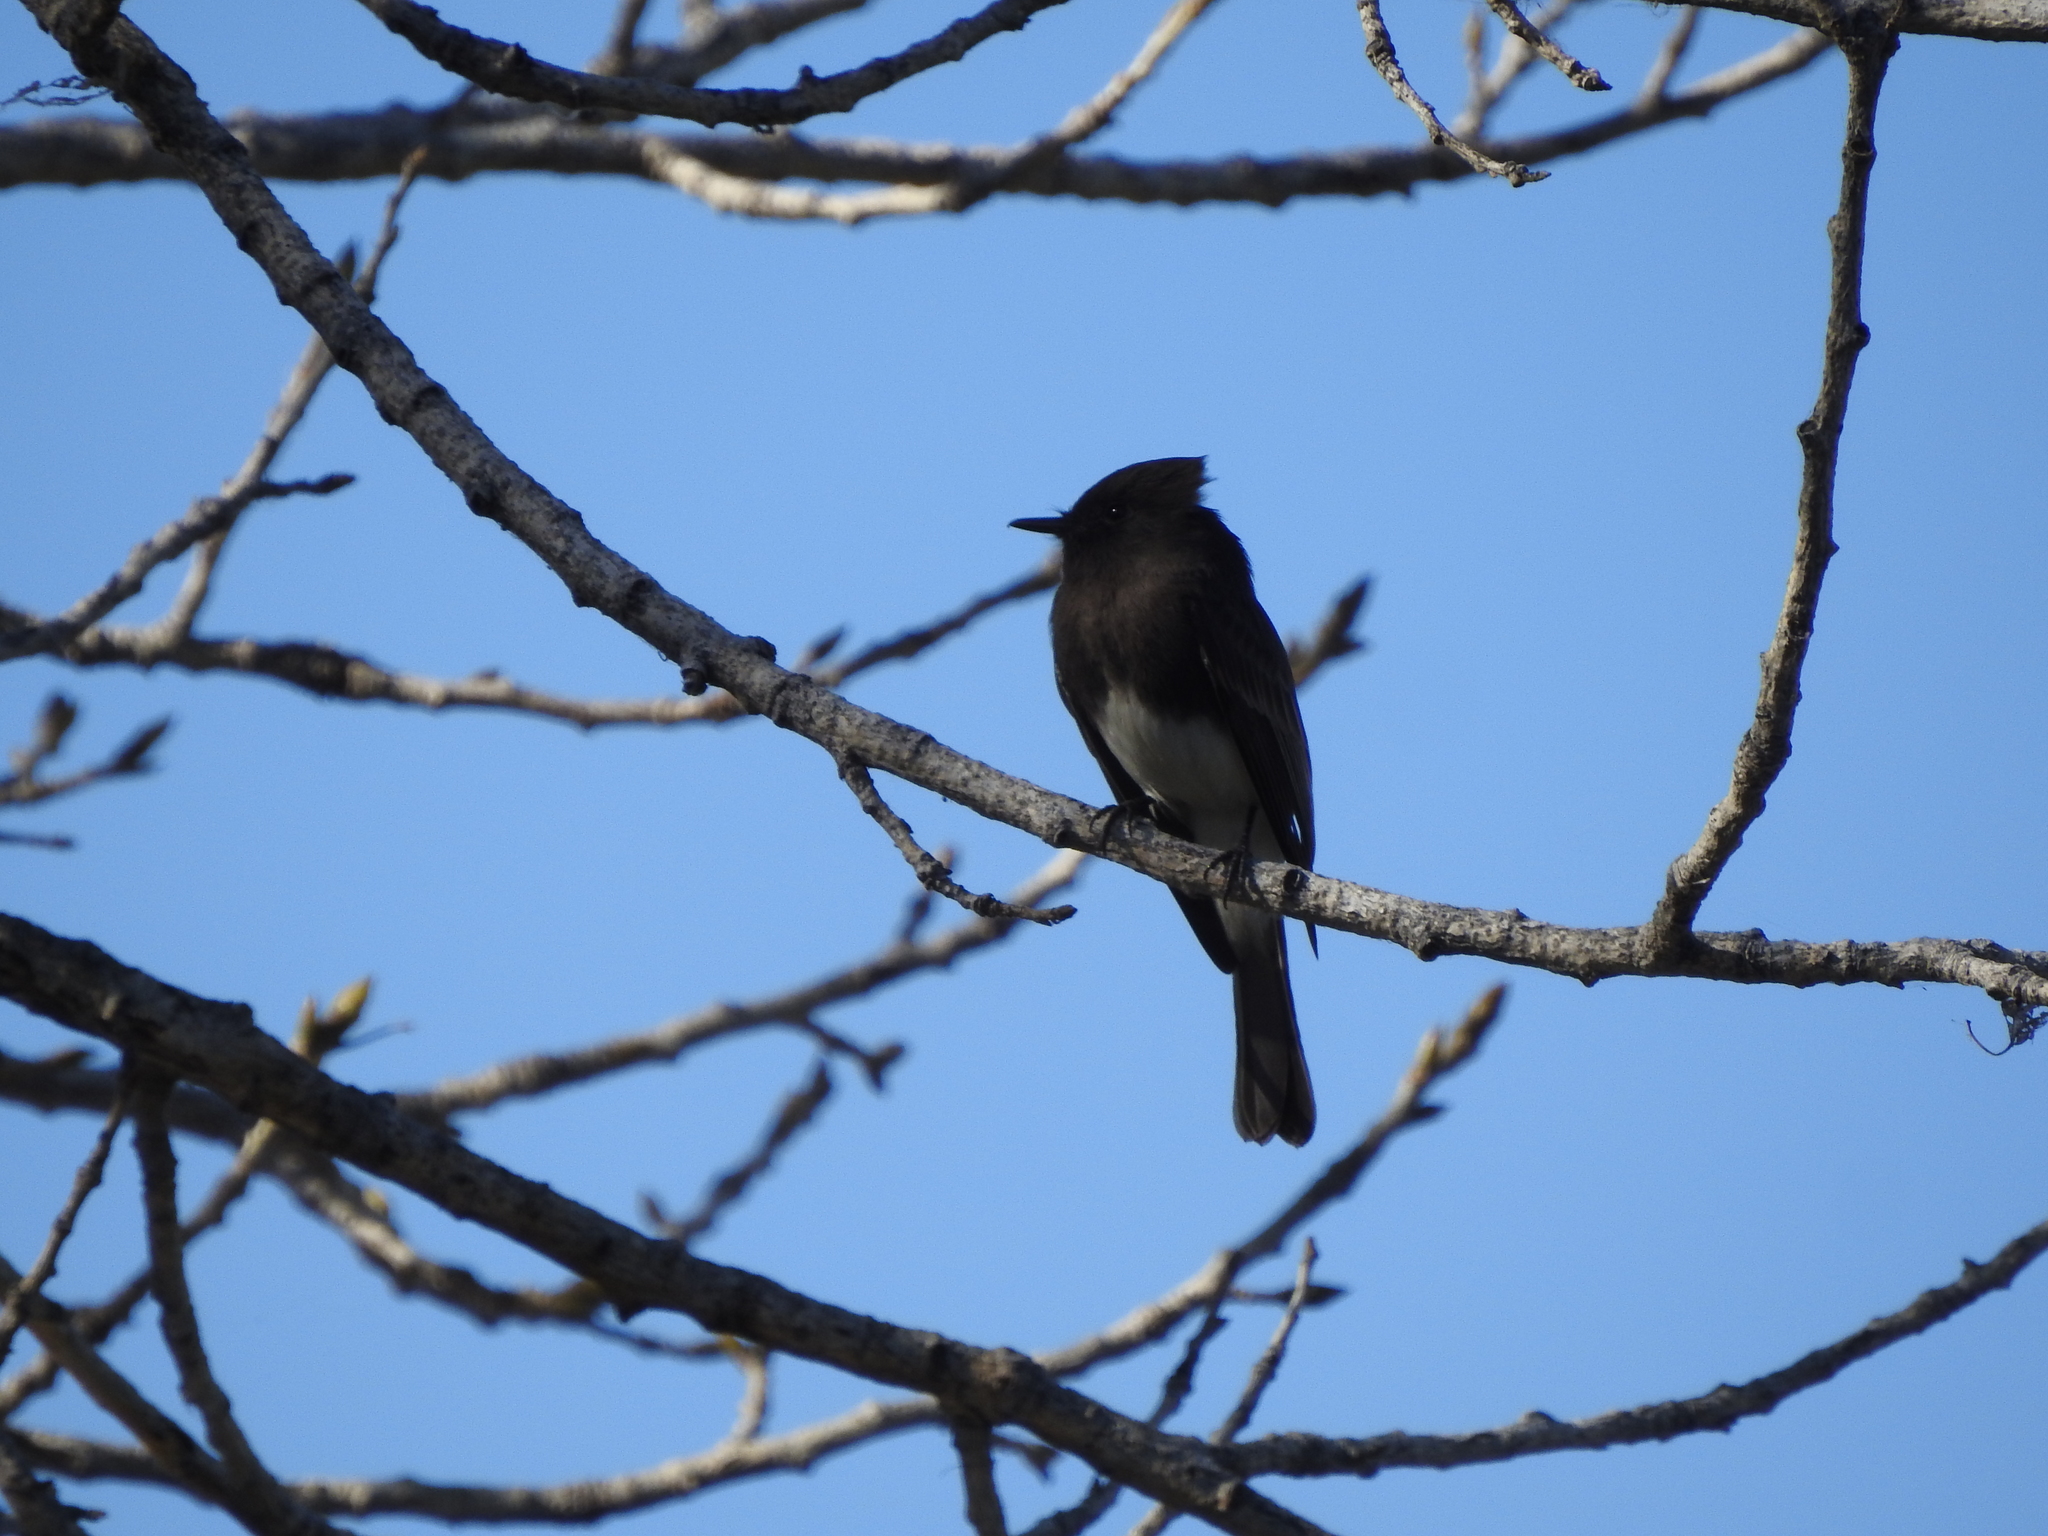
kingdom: Animalia
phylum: Chordata
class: Aves
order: Passeriformes
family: Tyrannidae
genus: Sayornis
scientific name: Sayornis nigricans
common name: Black phoebe
